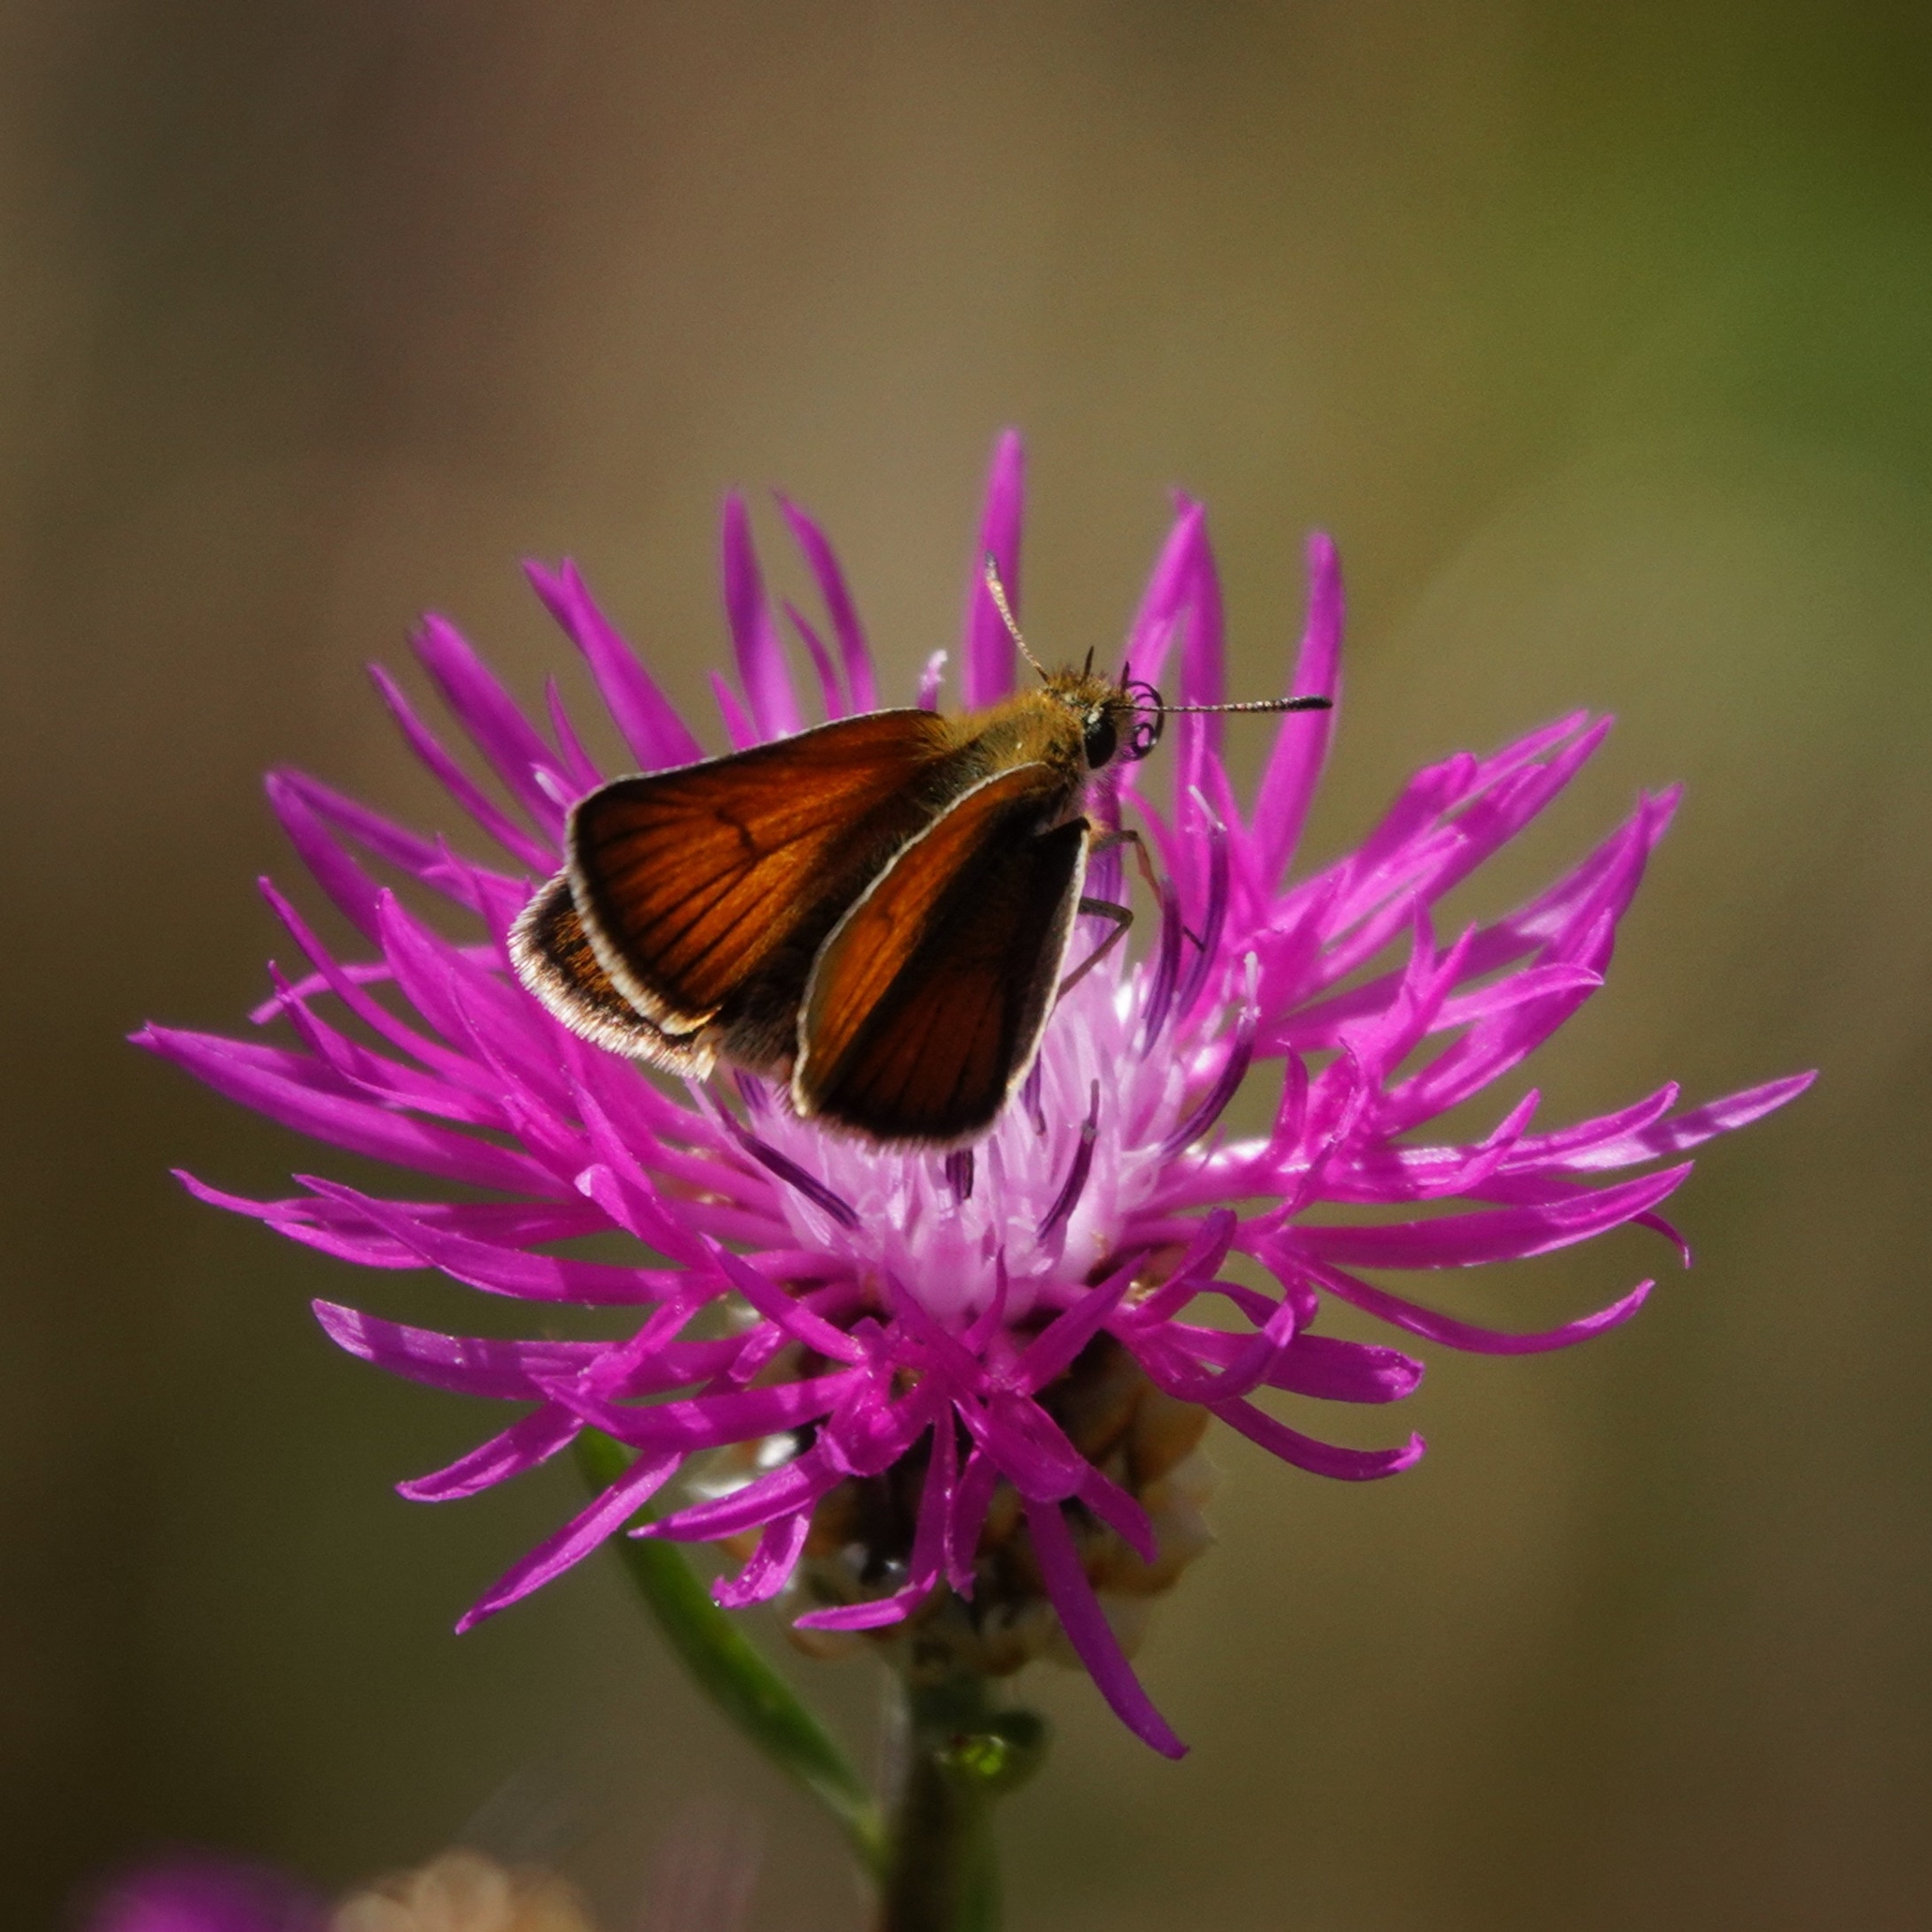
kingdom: Animalia
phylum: Arthropoda
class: Insecta
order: Lepidoptera
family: Hesperiidae
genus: Thymelicus
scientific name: Thymelicus lineola
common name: Essex skipper
